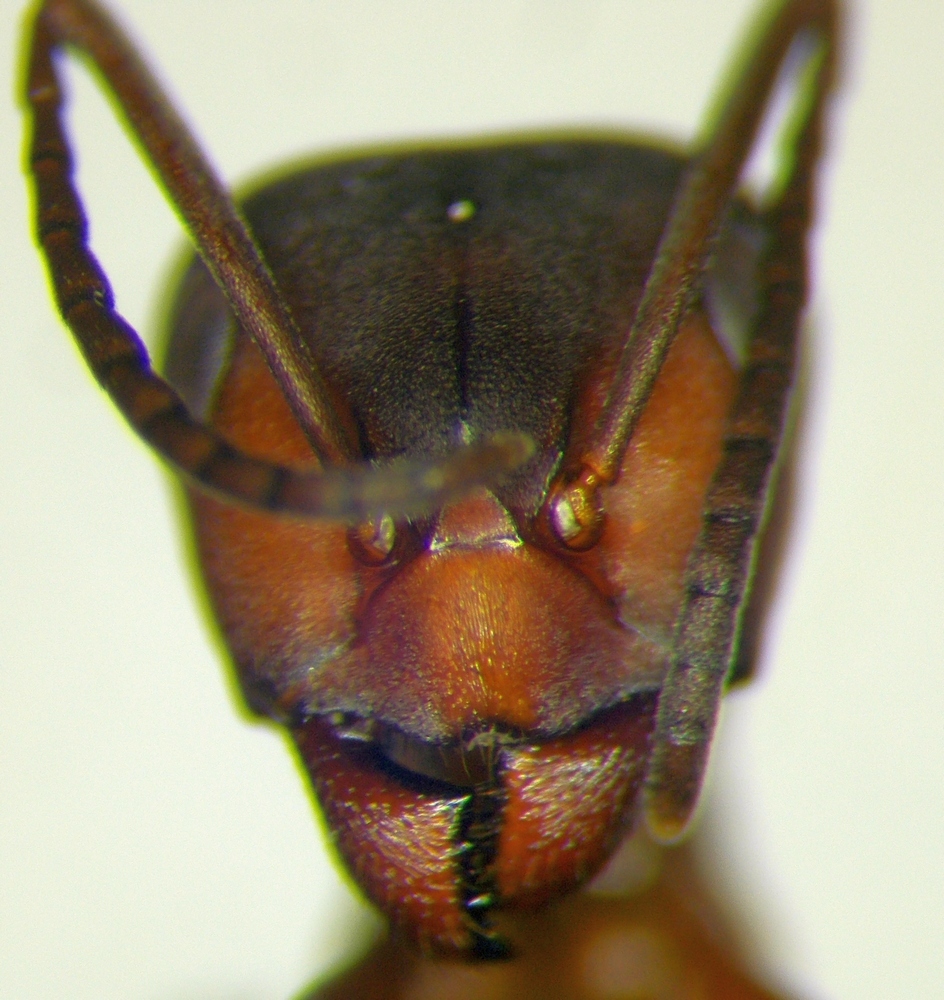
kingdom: Animalia
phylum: Arthropoda
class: Insecta
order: Hymenoptera
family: Formicidae
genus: Formica
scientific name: Formica sanguinea
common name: Blood-red ant
